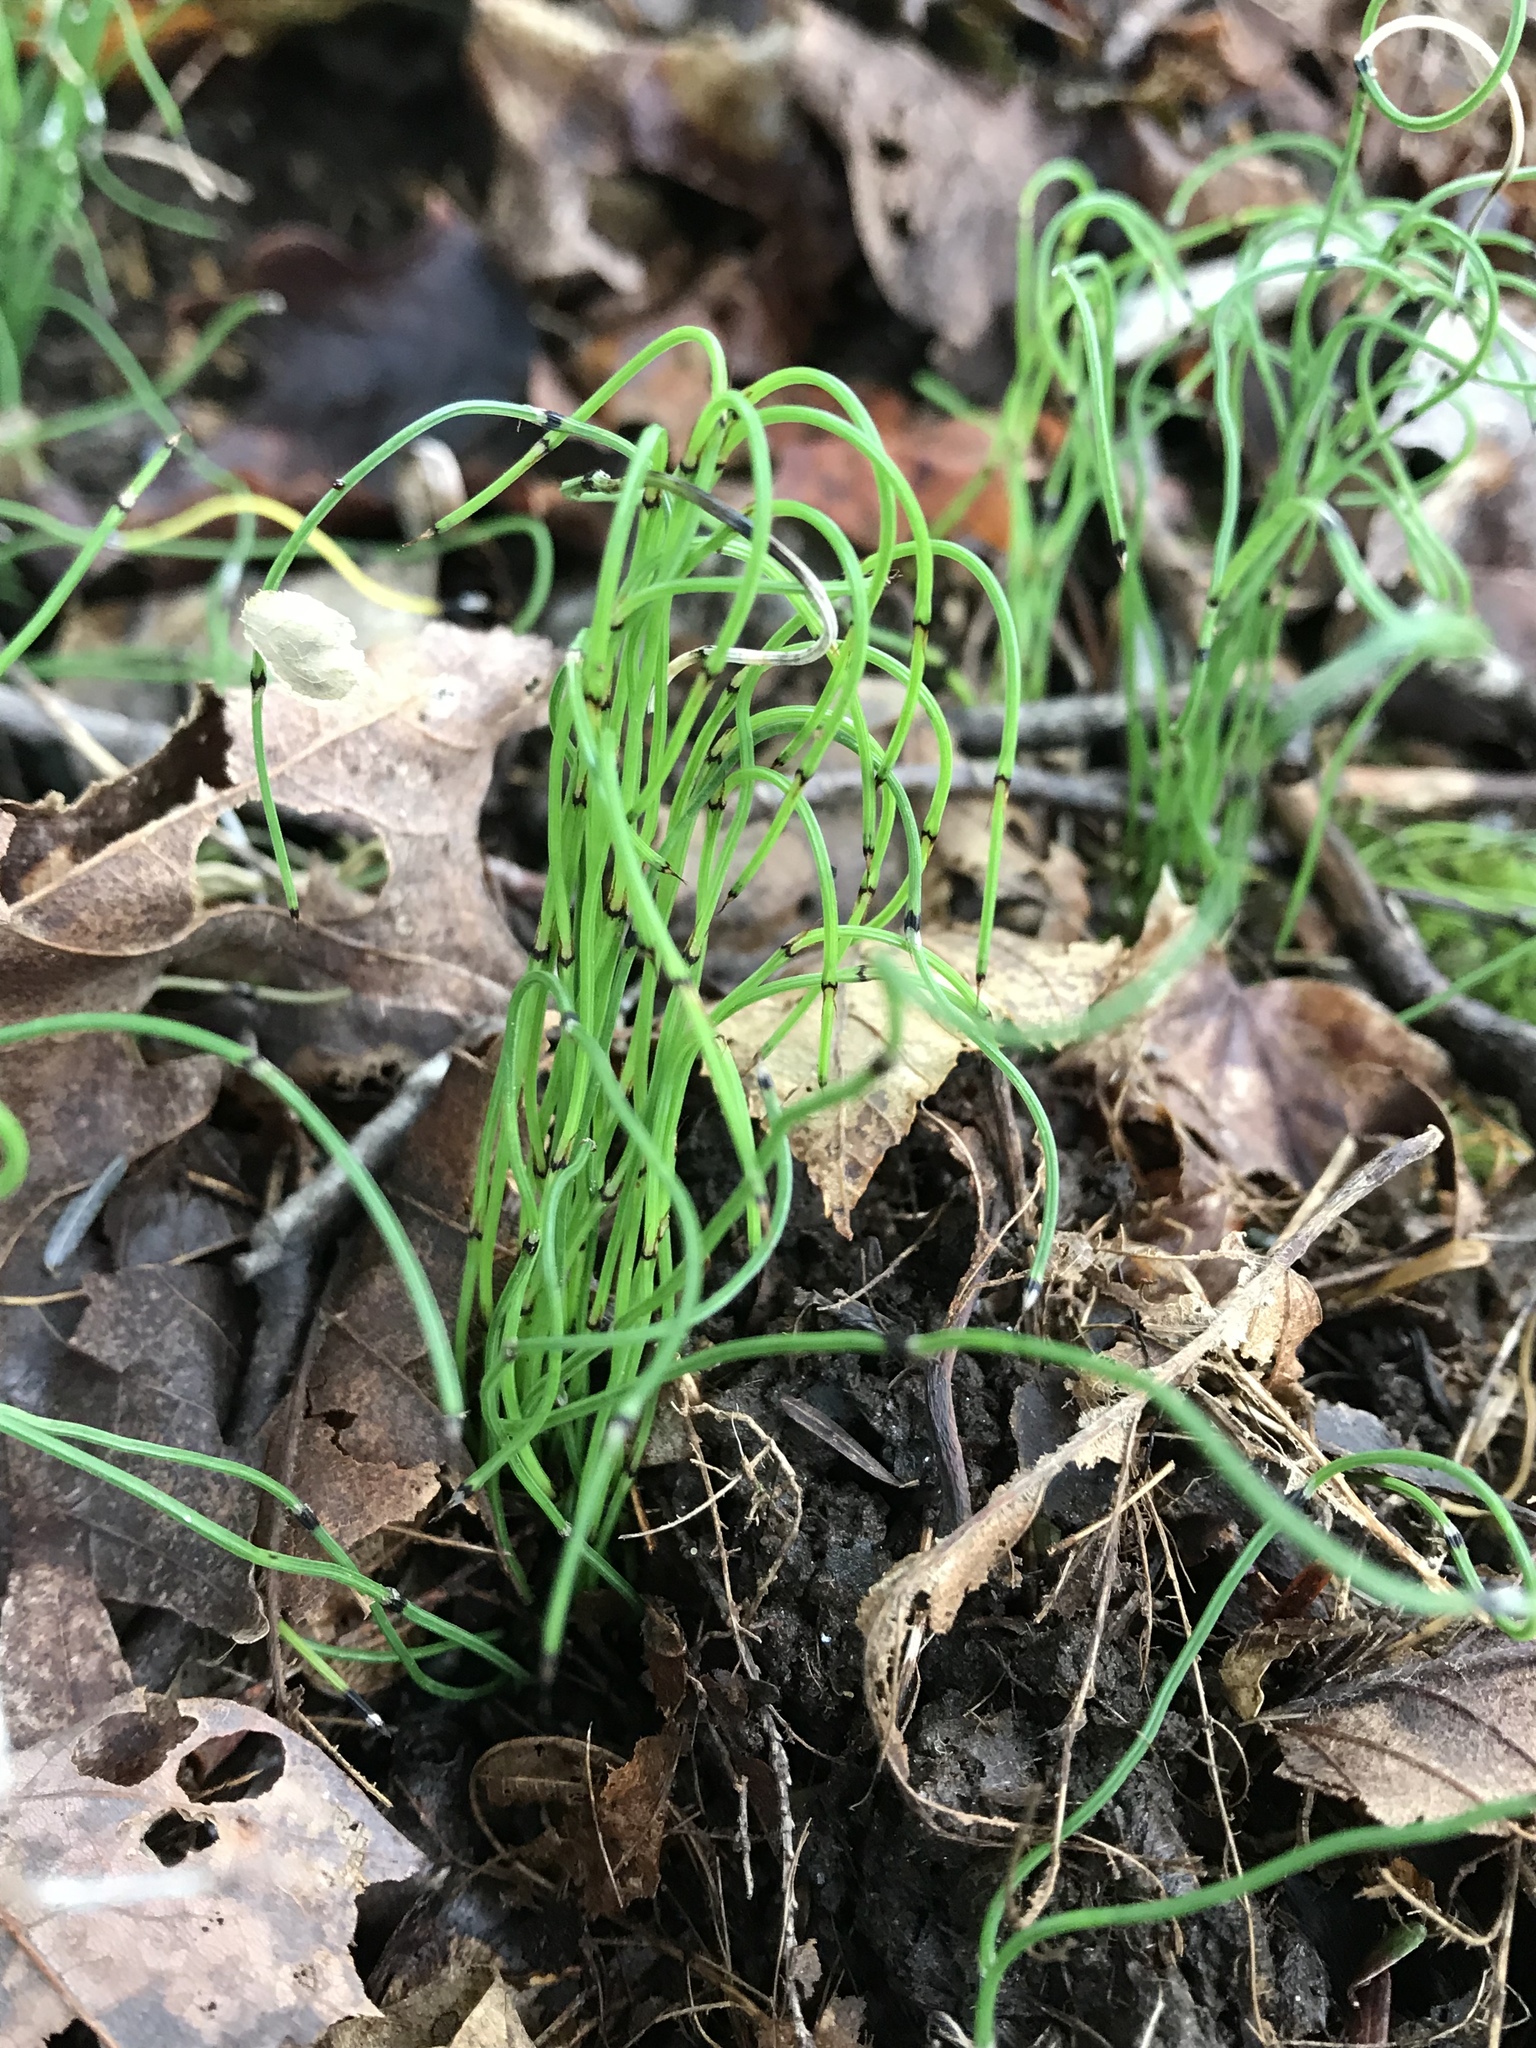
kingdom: Plantae
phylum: Tracheophyta
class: Polypodiopsida
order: Equisetales
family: Equisetaceae
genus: Equisetum
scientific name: Equisetum scirpoides
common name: Delicate horsetail
